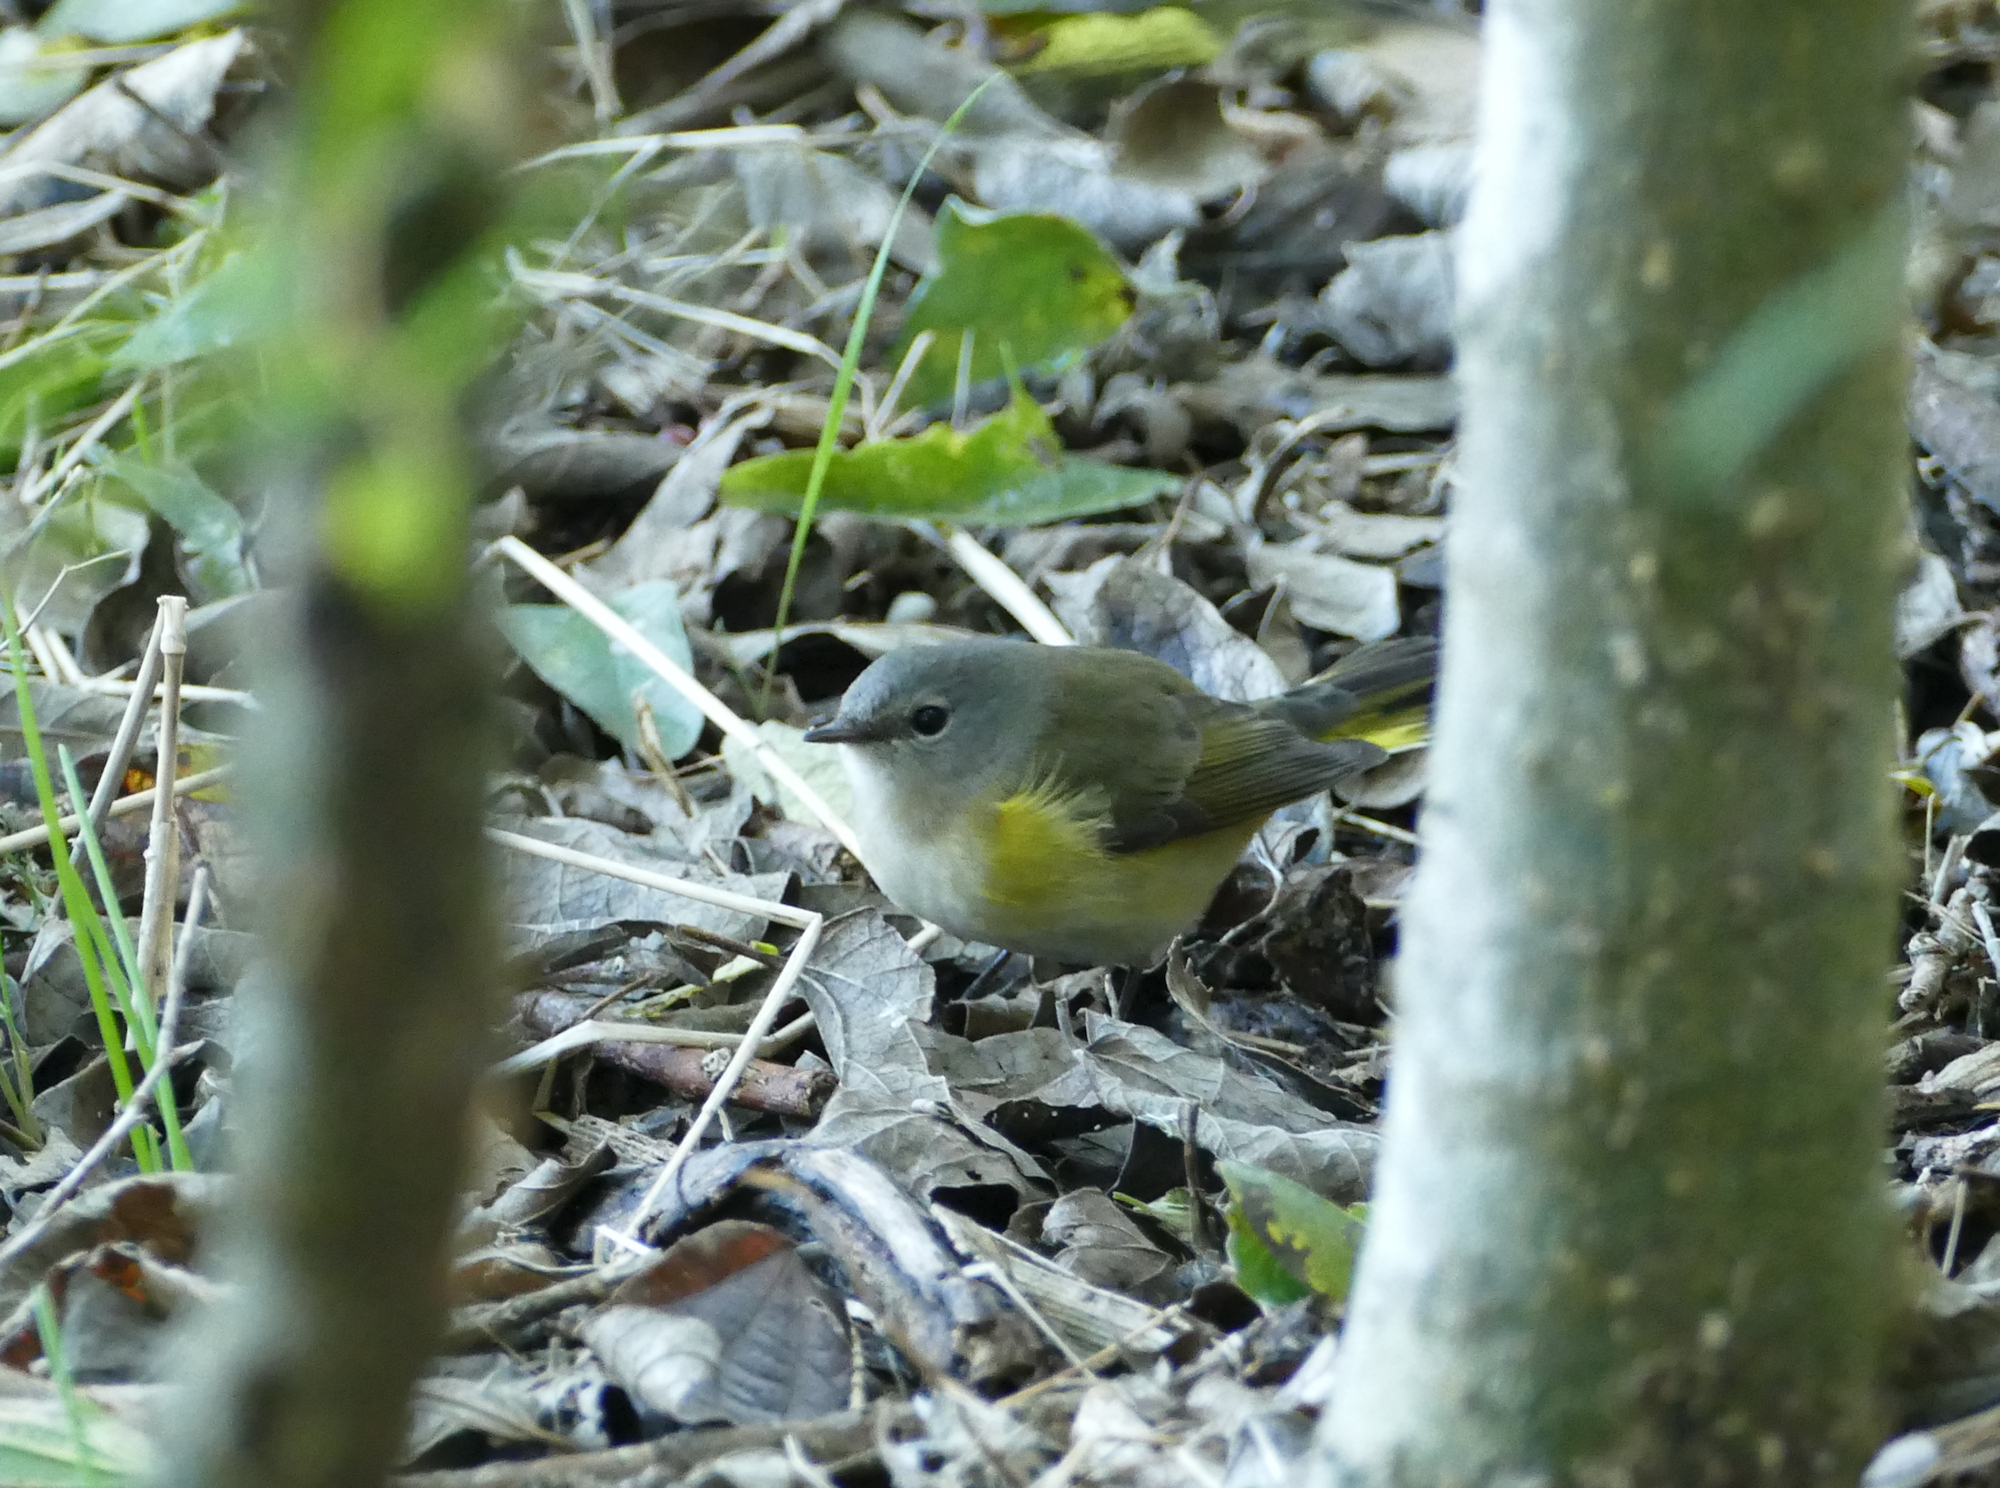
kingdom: Animalia
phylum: Chordata
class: Aves
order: Passeriformes
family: Parulidae
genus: Setophaga
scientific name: Setophaga ruticilla
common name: American redstart
